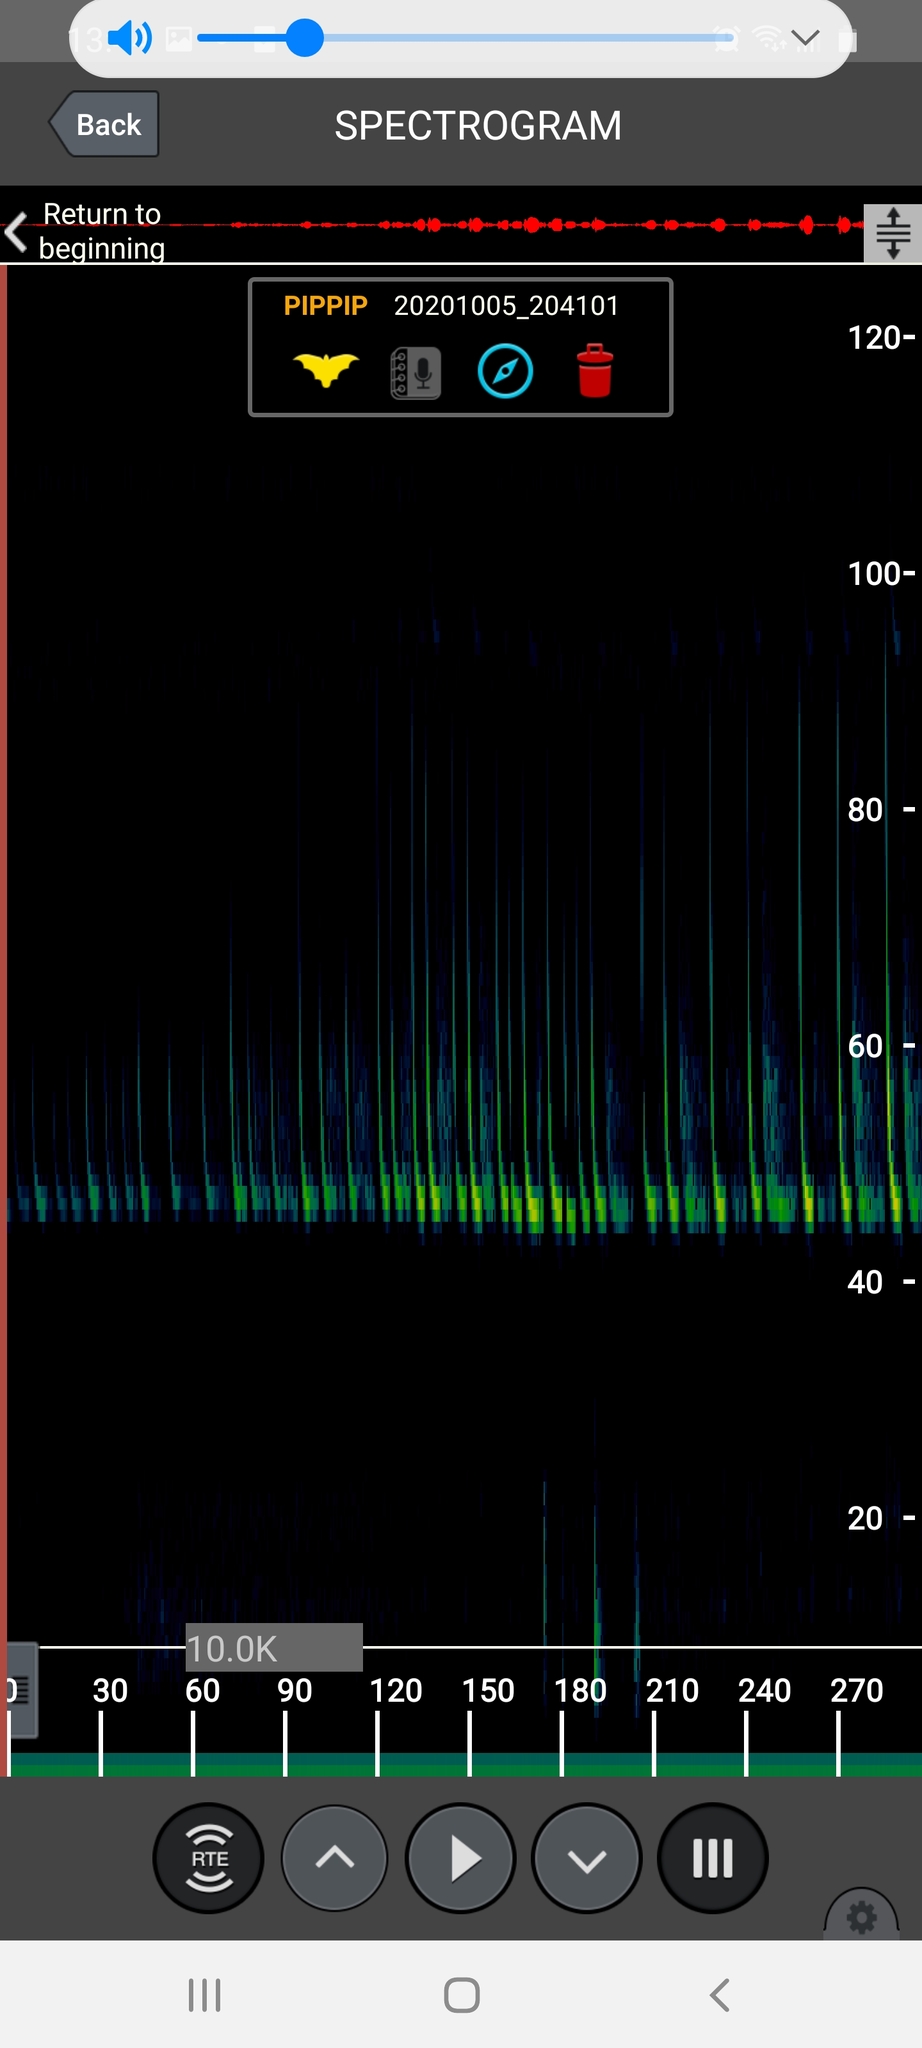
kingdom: Animalia
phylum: Chordata
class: Mammalia
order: Chiroptera
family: Vespertilionidae
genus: Pipistrellus
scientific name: Pipistrellus pipistrellus
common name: Common pipistrelle
